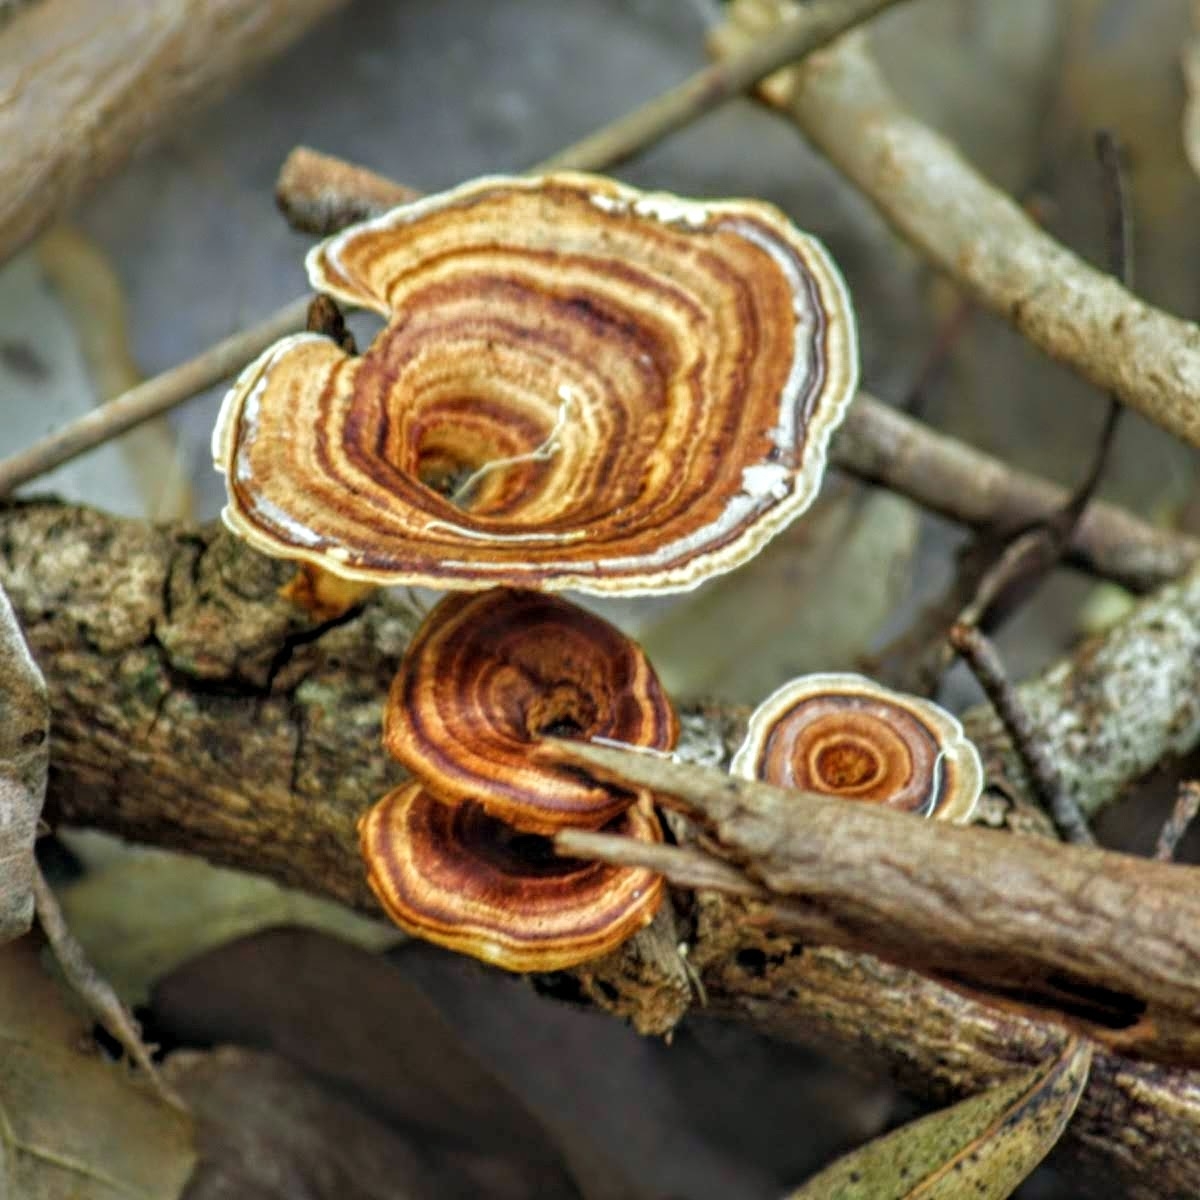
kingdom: Fungi
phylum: Basidiomycota
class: Agaricomycetes
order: Polyporales
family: Polyporaceae
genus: Microporus
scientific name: Microporus xanthopus
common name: Yellow-stemmed micropore
